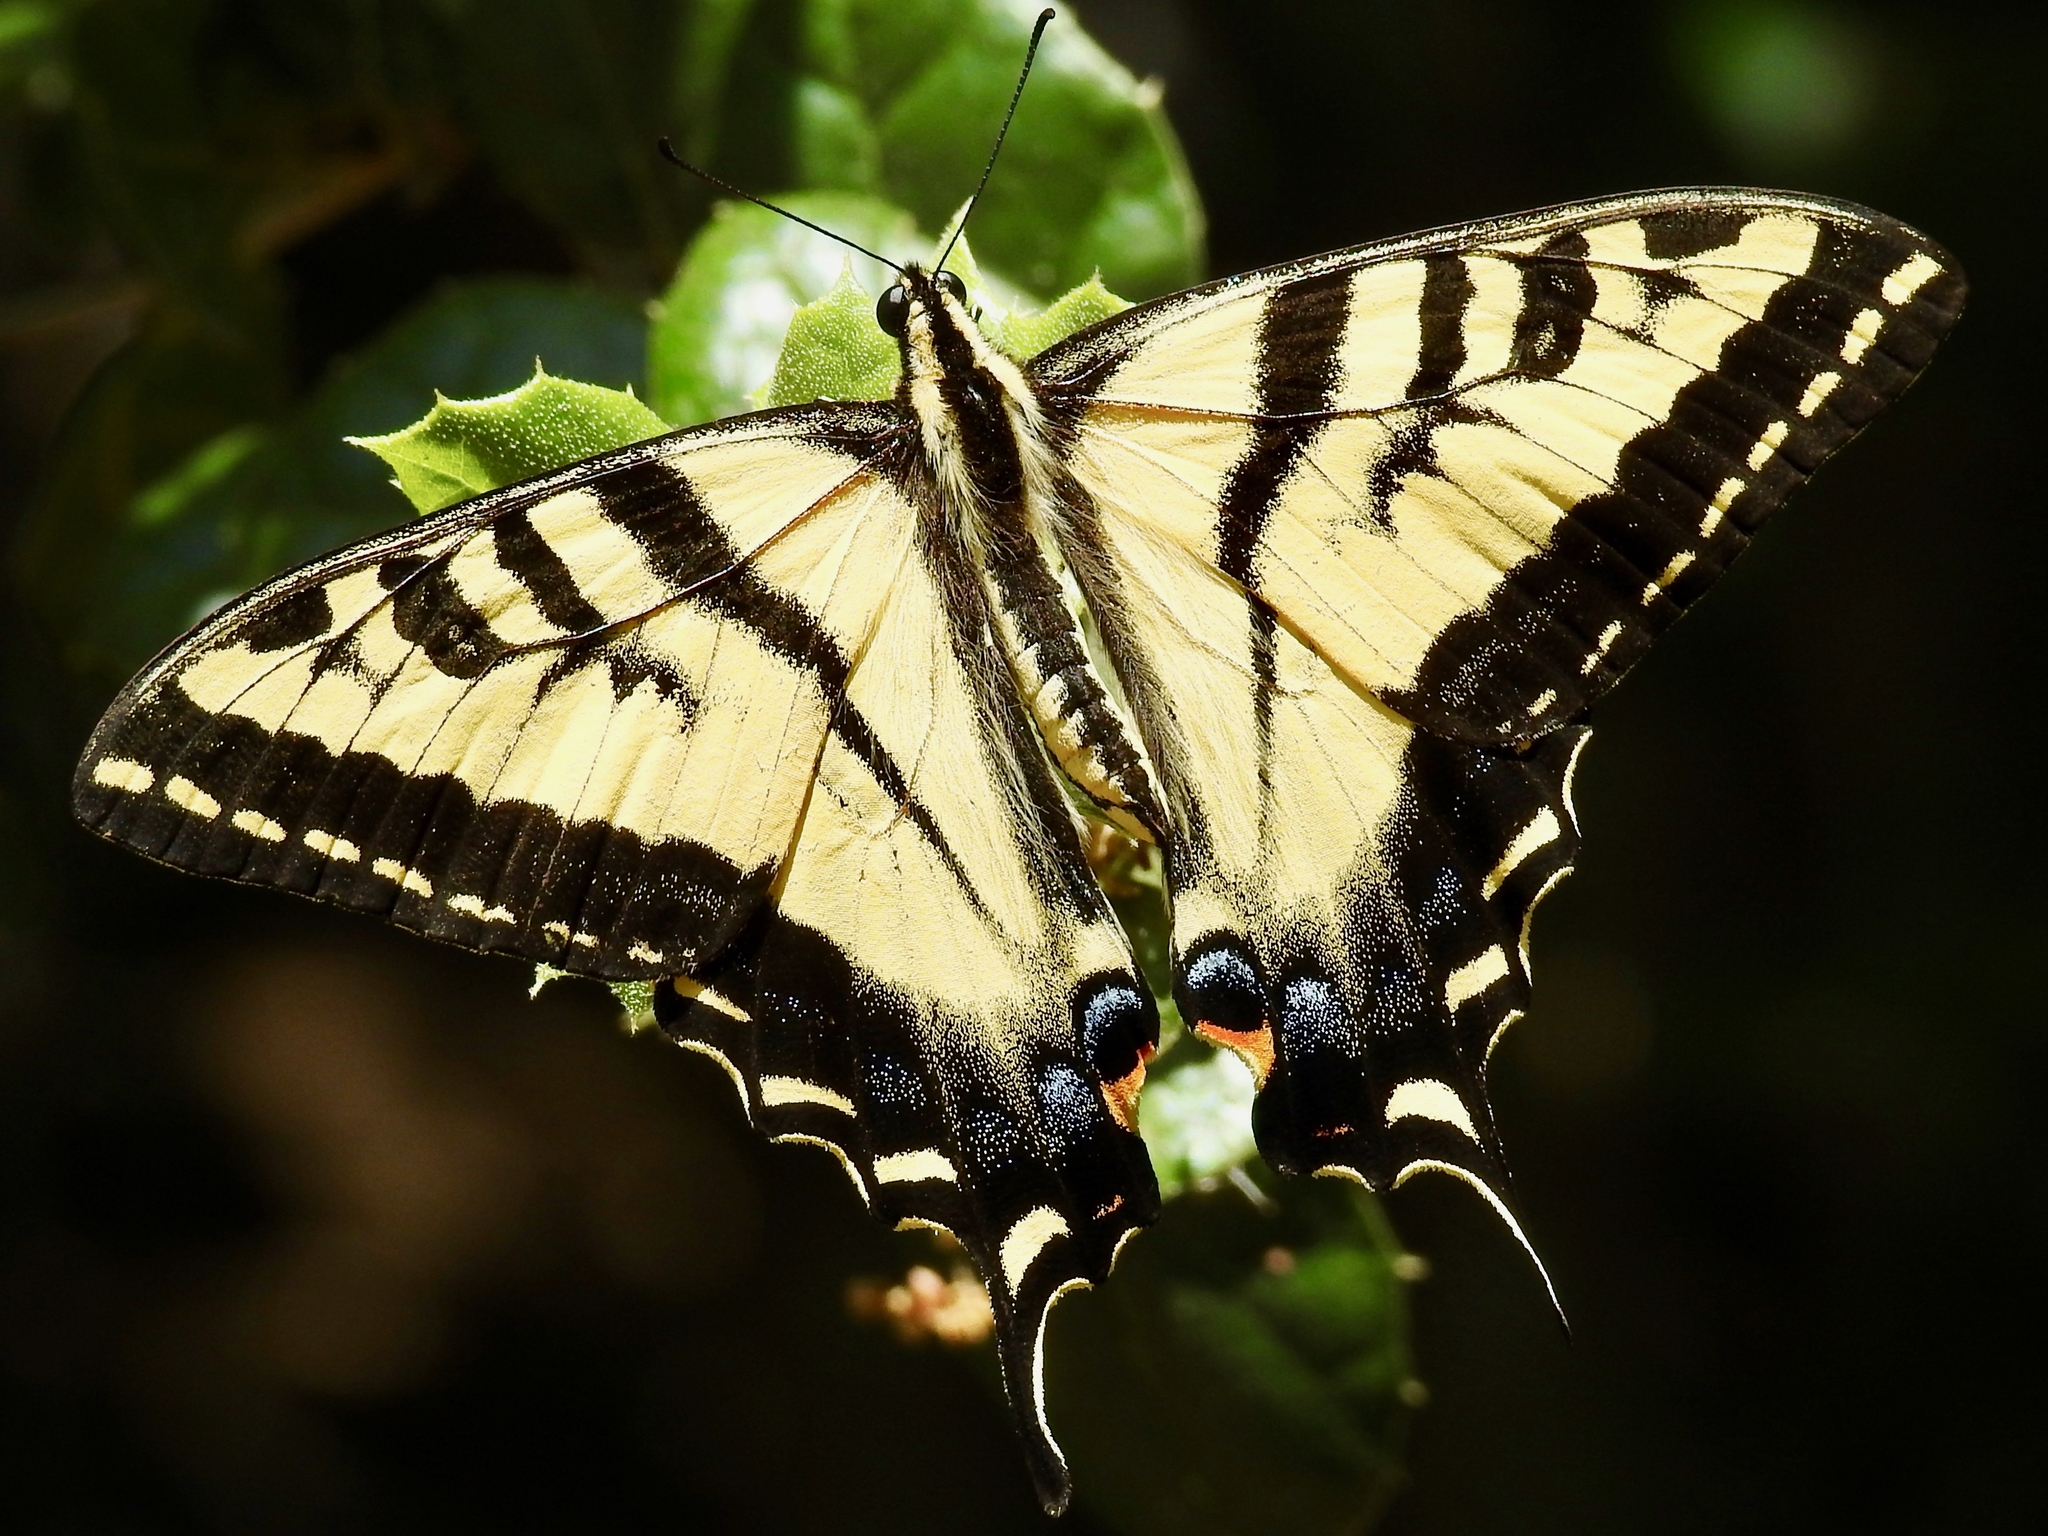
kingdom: Animalia
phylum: Arthropoda
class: Insecta
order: Lepidoptera
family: Papilionidae
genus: Papilio
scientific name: Papilio rutulus
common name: Western tiger swallowtail
